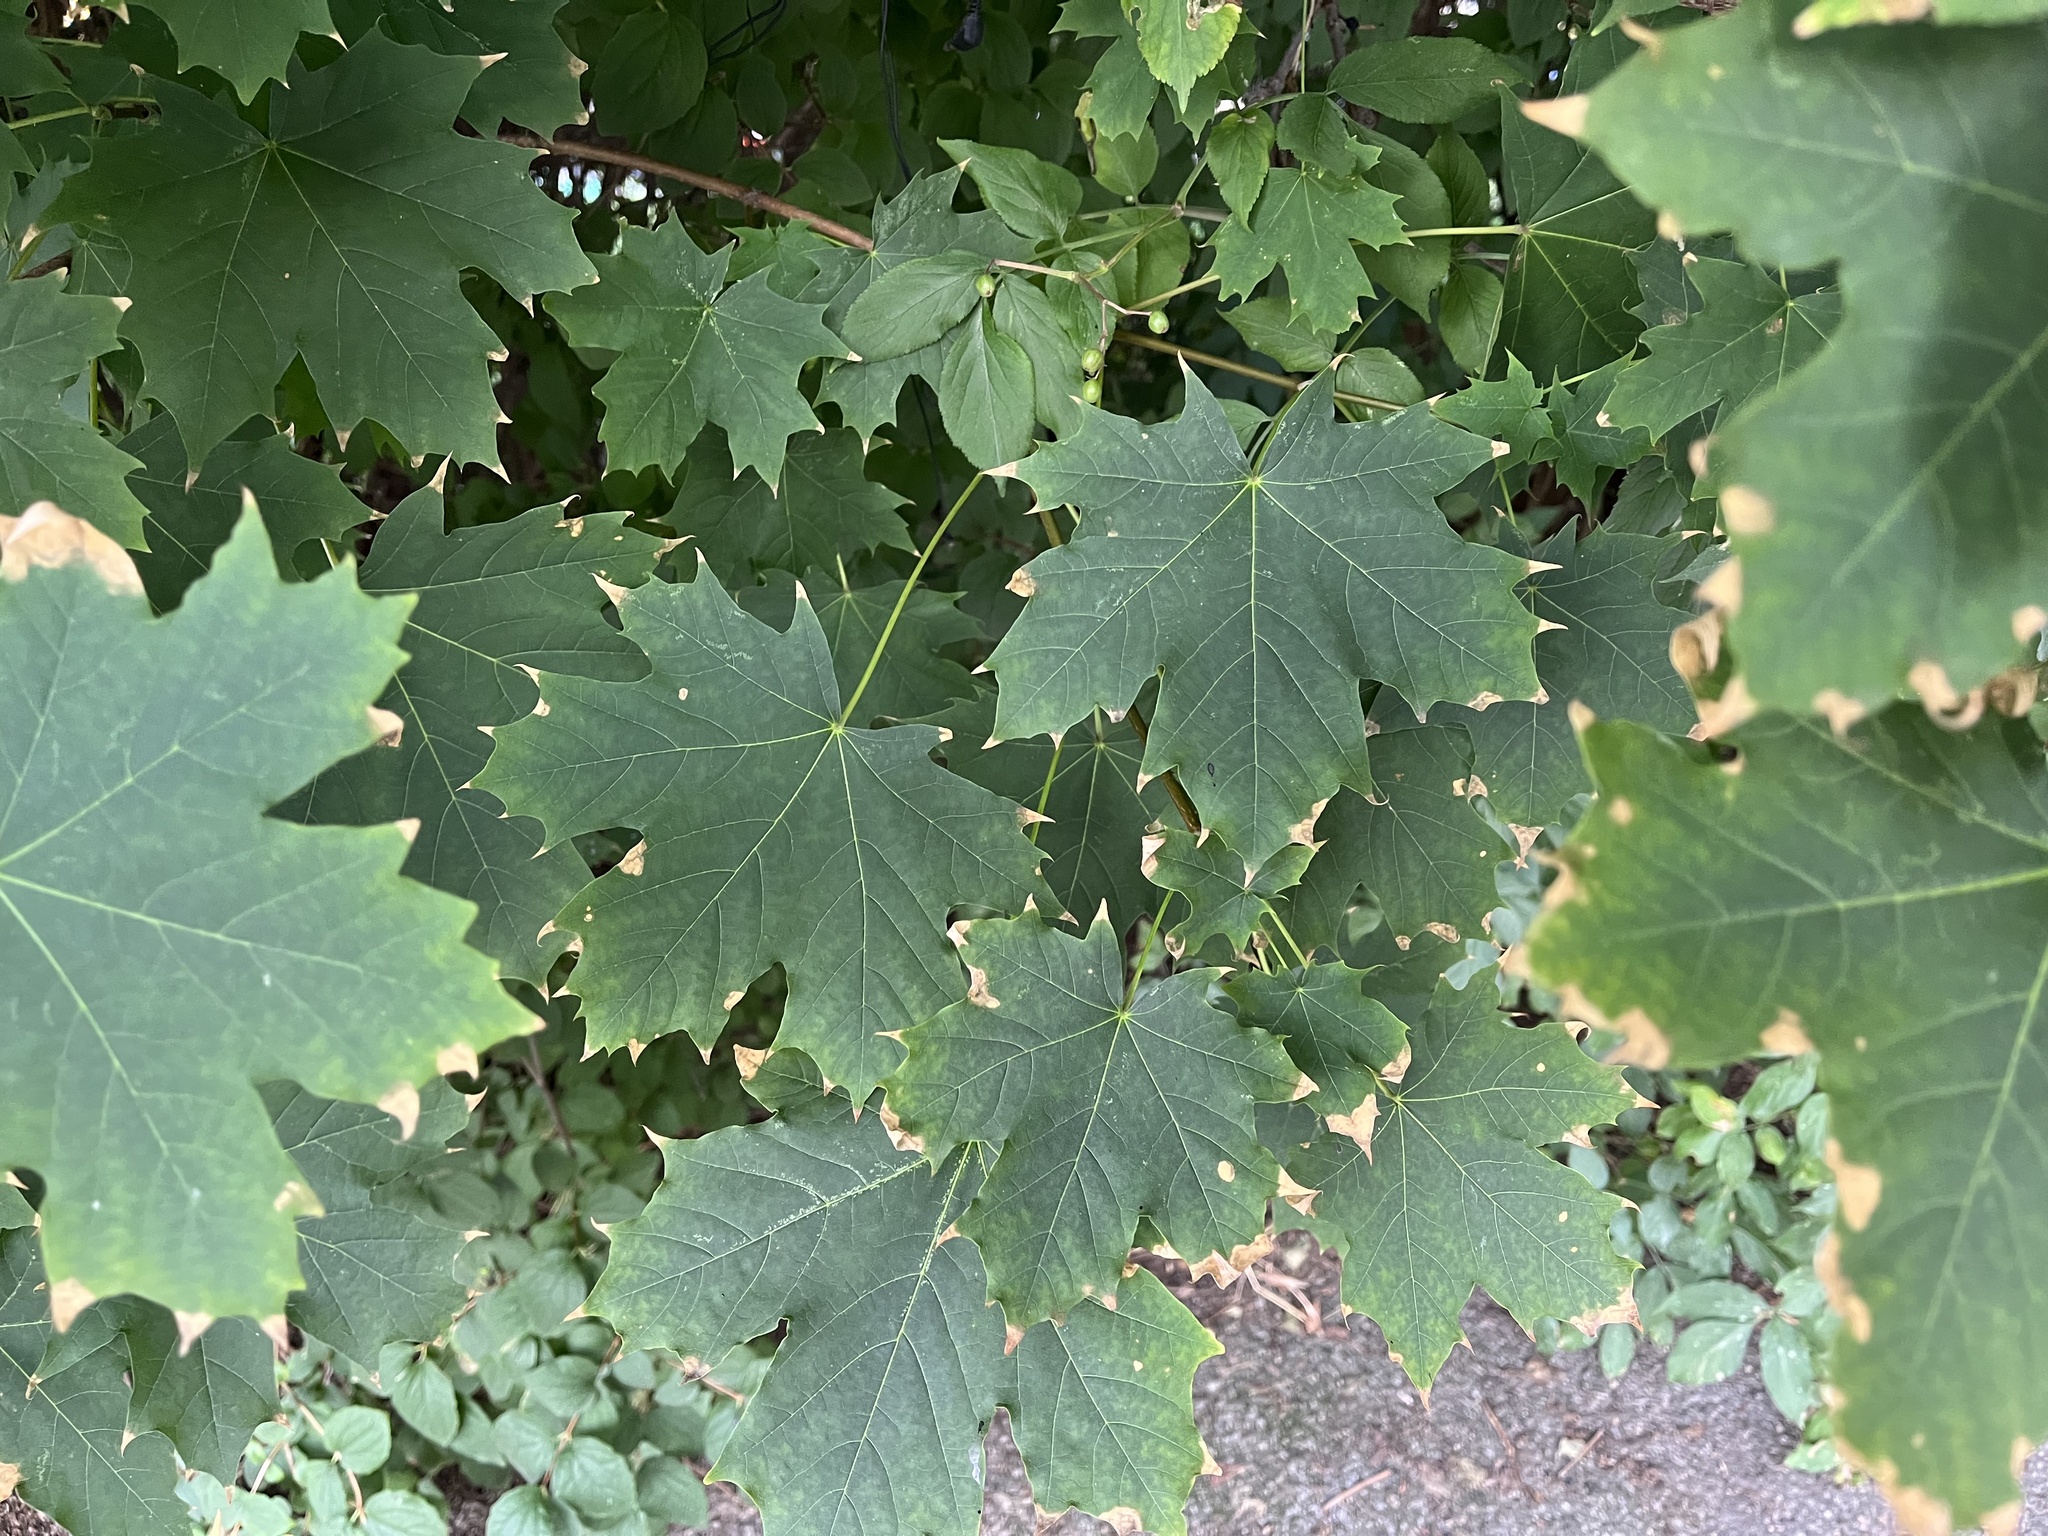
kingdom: Plantae
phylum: Tracheophyta
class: Magnoliopsida
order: Sapindales
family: Sapindaceae
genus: Acer
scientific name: Acer platanoides
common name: Norway maple
